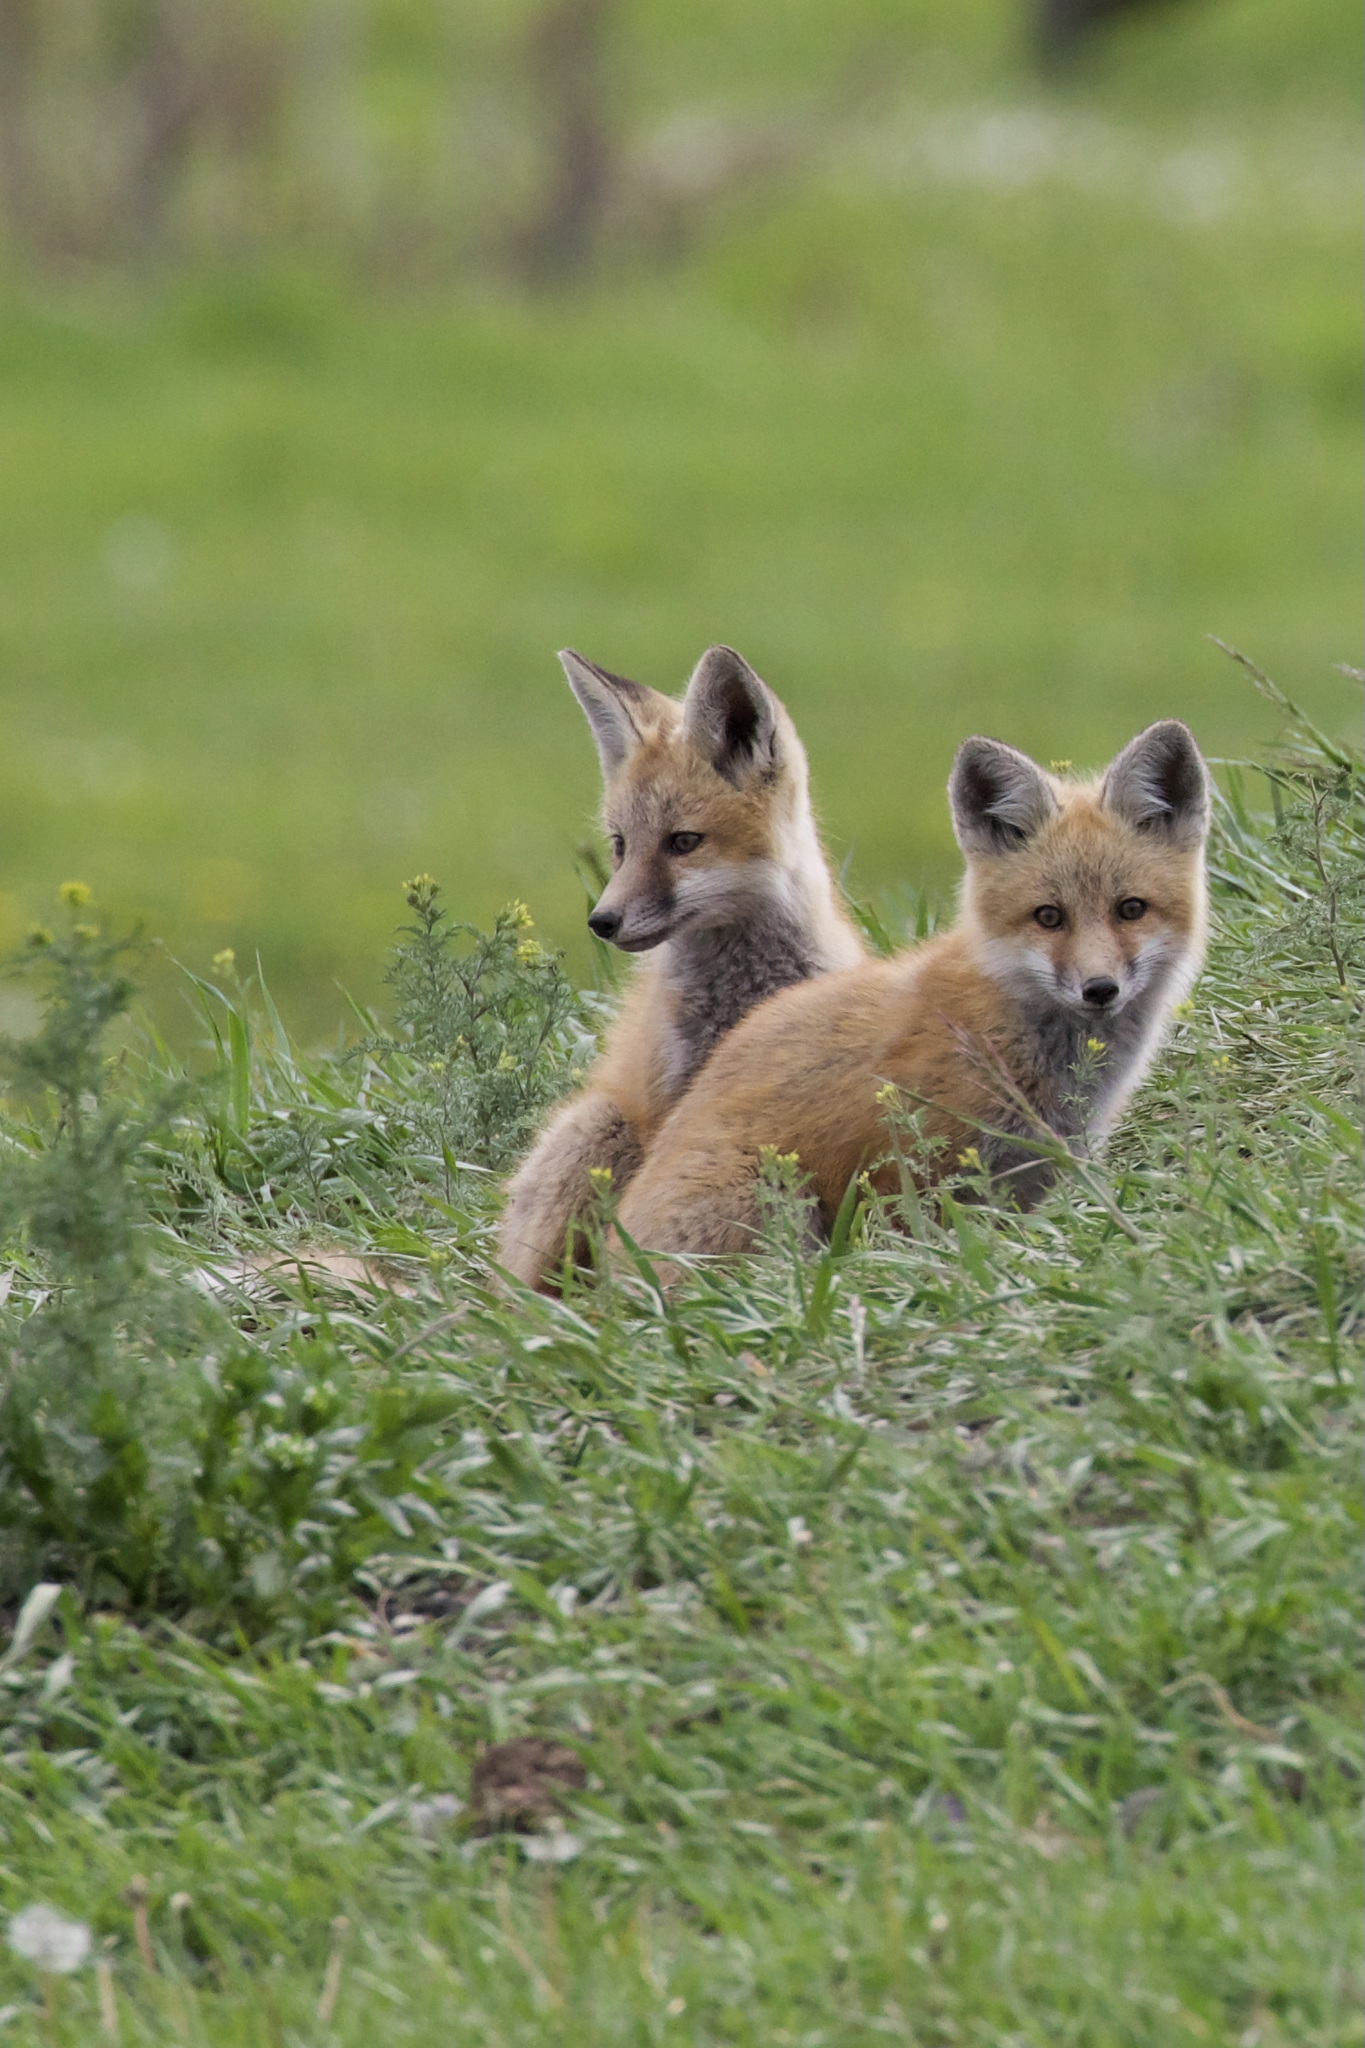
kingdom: Animalia
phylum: Chordata
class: Mammalia
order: Carnivora
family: Canidae
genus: Vulpes
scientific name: Vulpes vulpes
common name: Red fox
